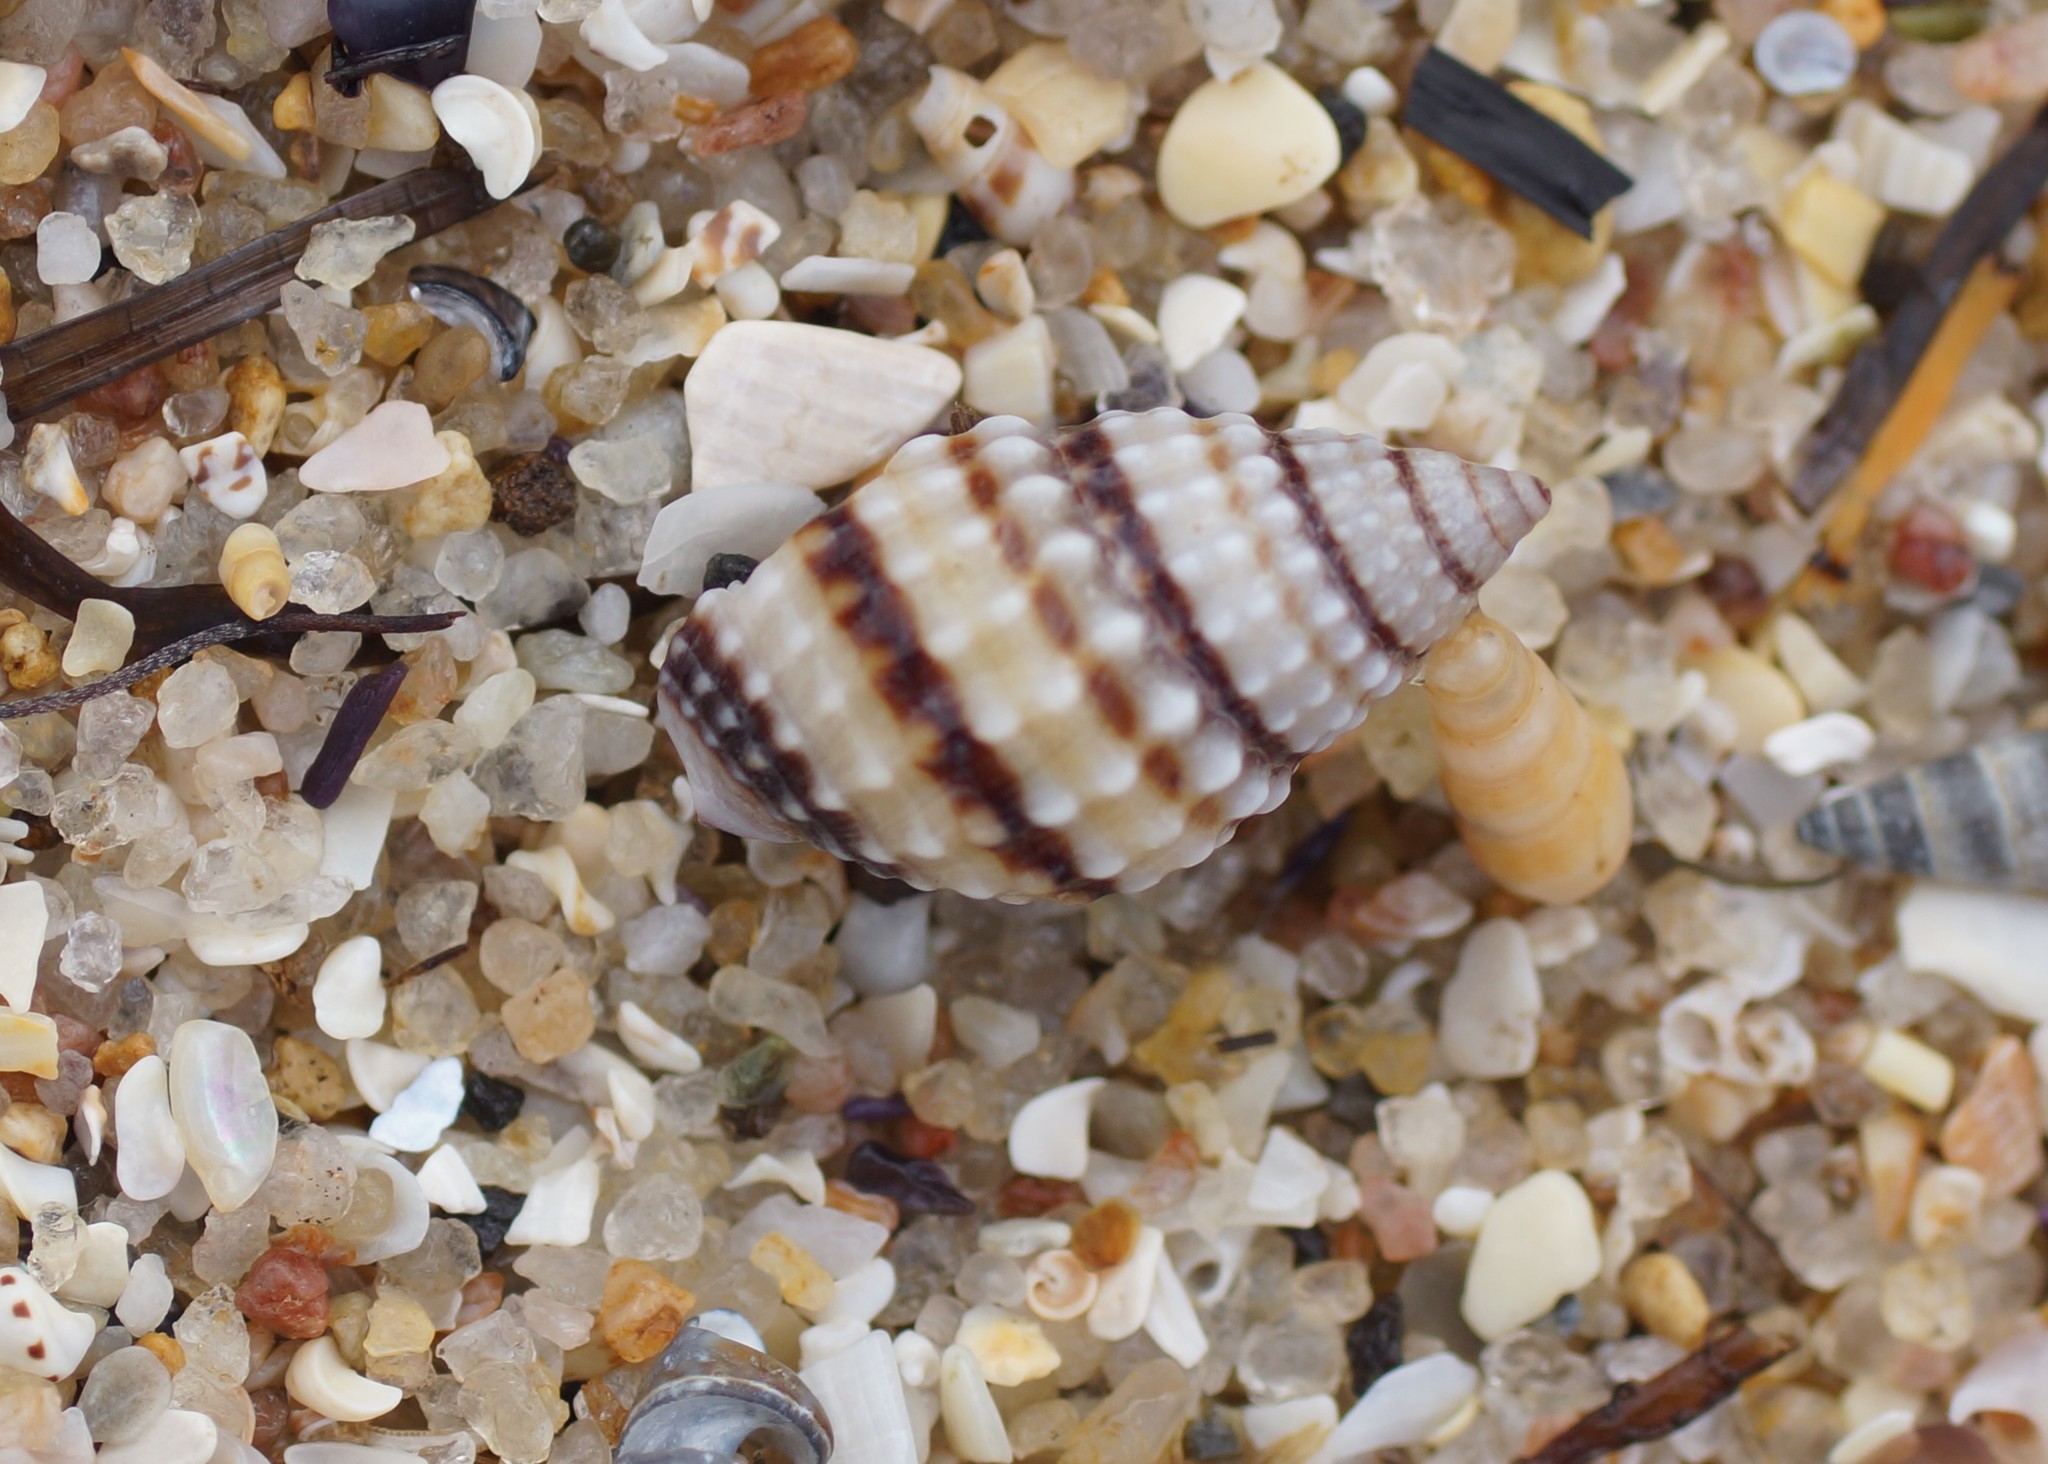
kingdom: Animalia
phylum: Mollusca
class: Gastropoda
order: Neogastropoda
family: Nassariidae
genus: Nassarius
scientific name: Nassarius pyrrhus
